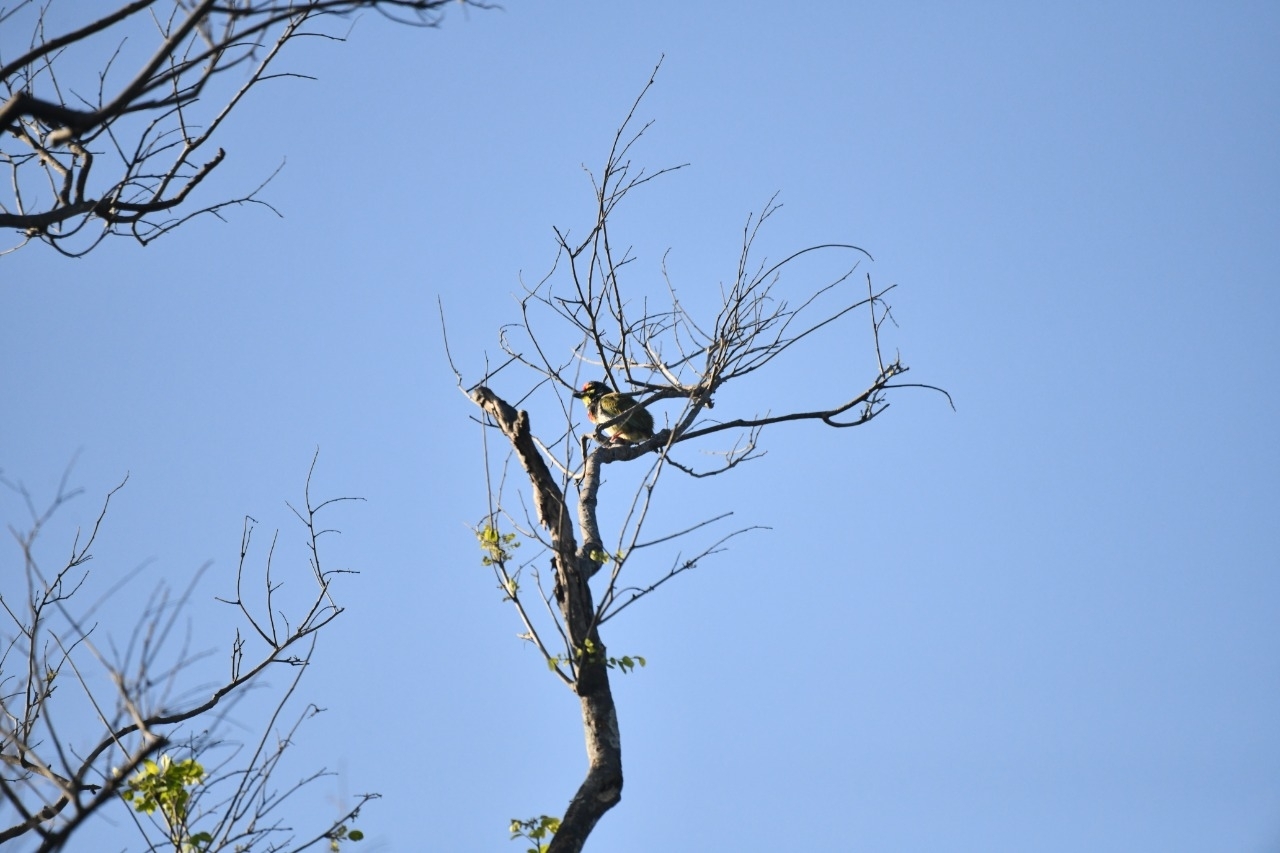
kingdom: Animalia
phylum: Chordata
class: Aves
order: Piciformes
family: Megalaimidae
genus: Psilopogon
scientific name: Psilopogon haemacephalus
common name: Coppersmith barbet
